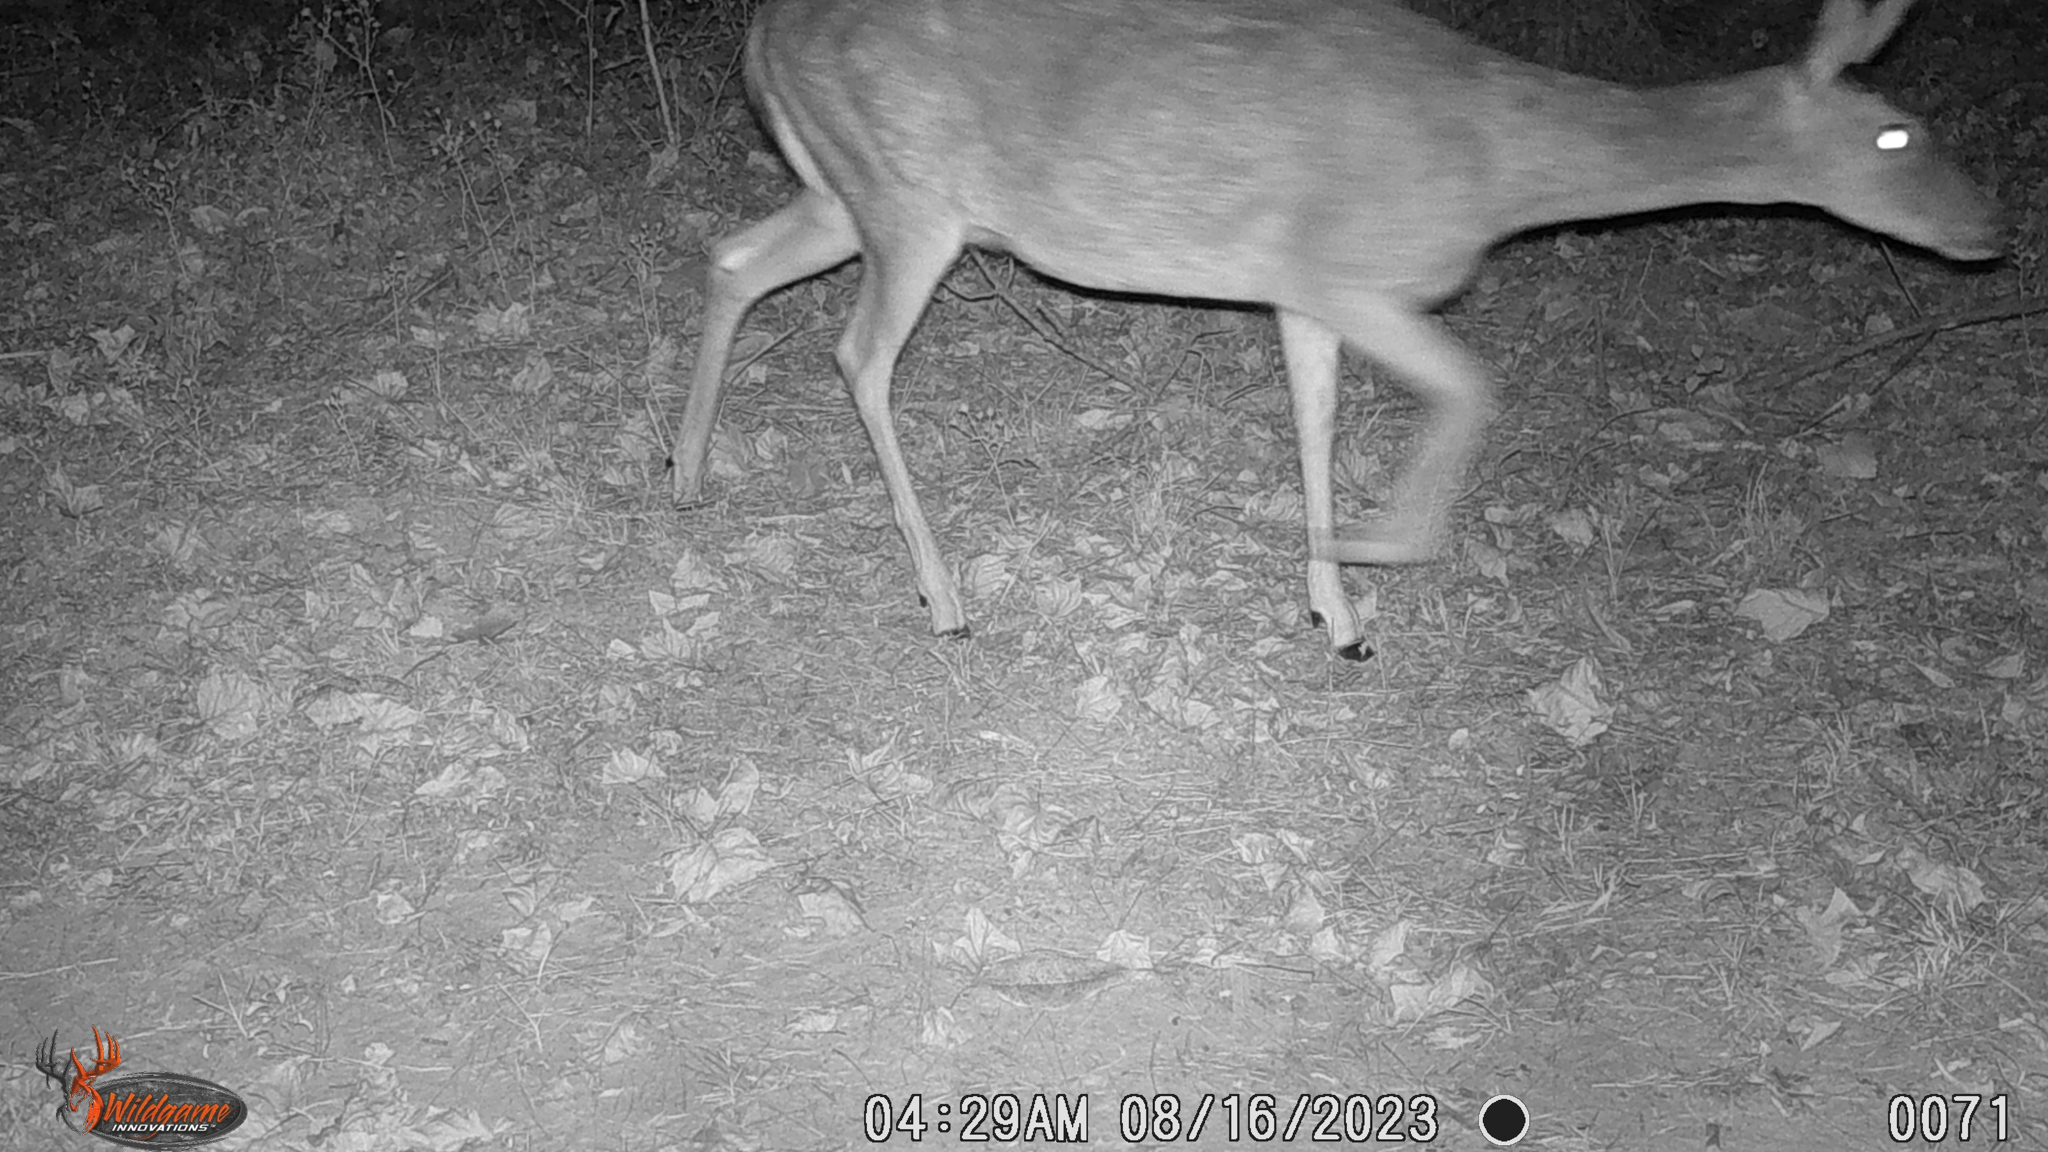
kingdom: Animalia
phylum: Chordata
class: Mammalia
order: Artiodactyla
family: Cervidae
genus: Odocoileus
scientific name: Odocoileus virginianus
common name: White-tailed deer
